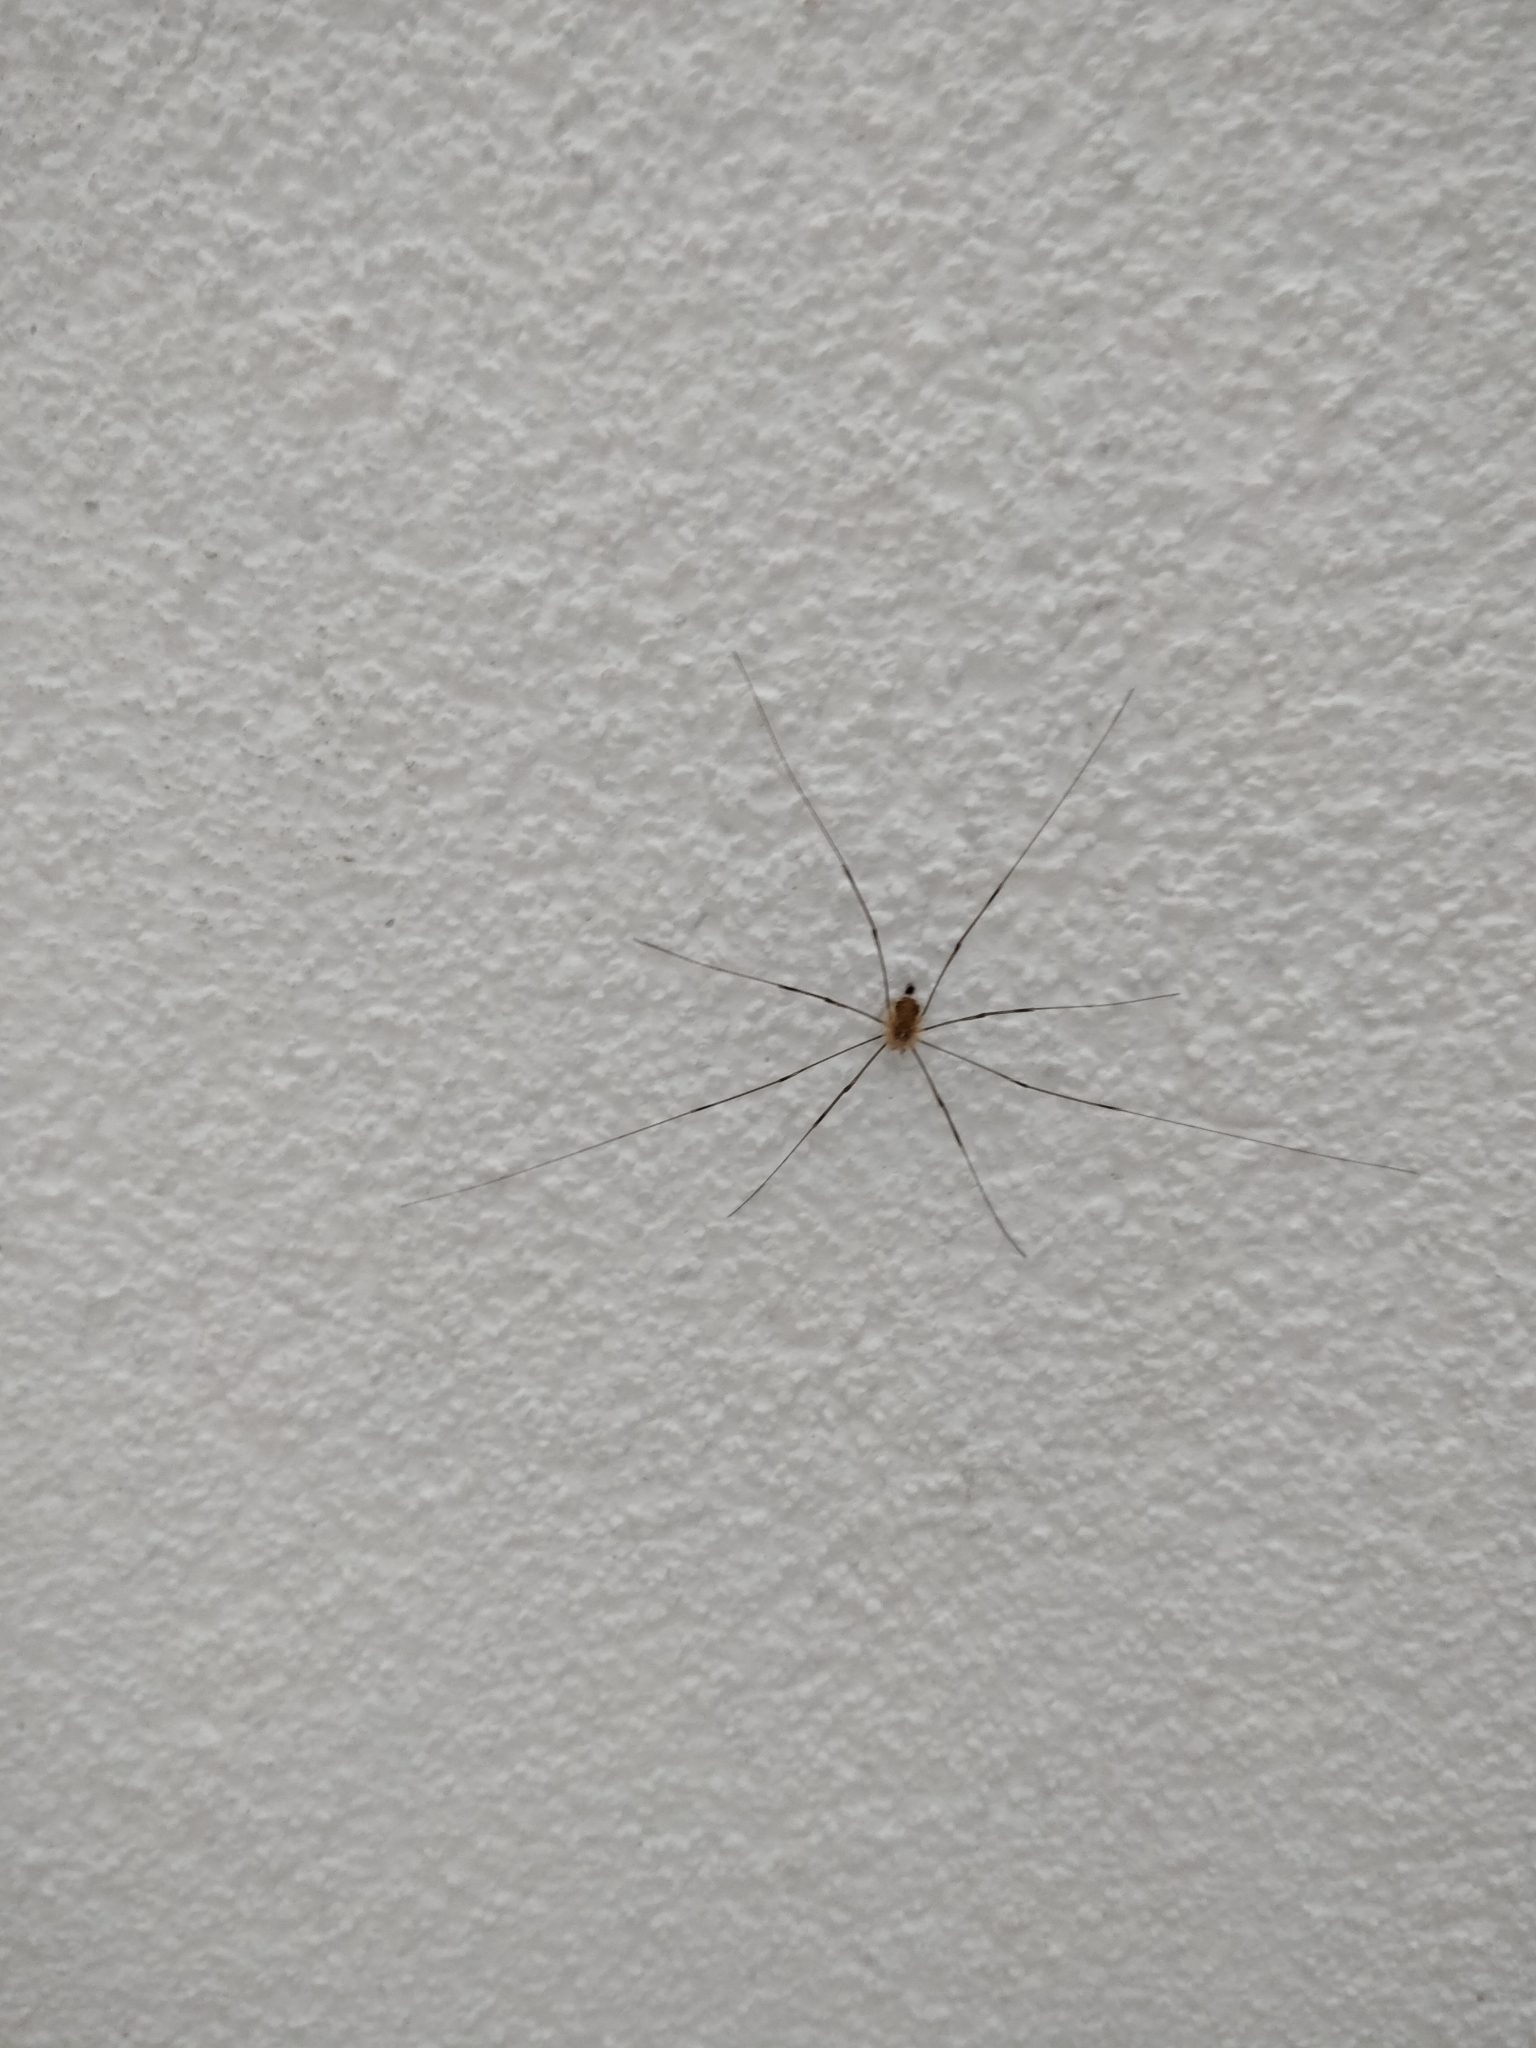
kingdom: Animalia
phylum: Arthropoda
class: Arachnida
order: Opiliones
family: Phalangiidae
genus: Opilio
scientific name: Opilio canestrinii
